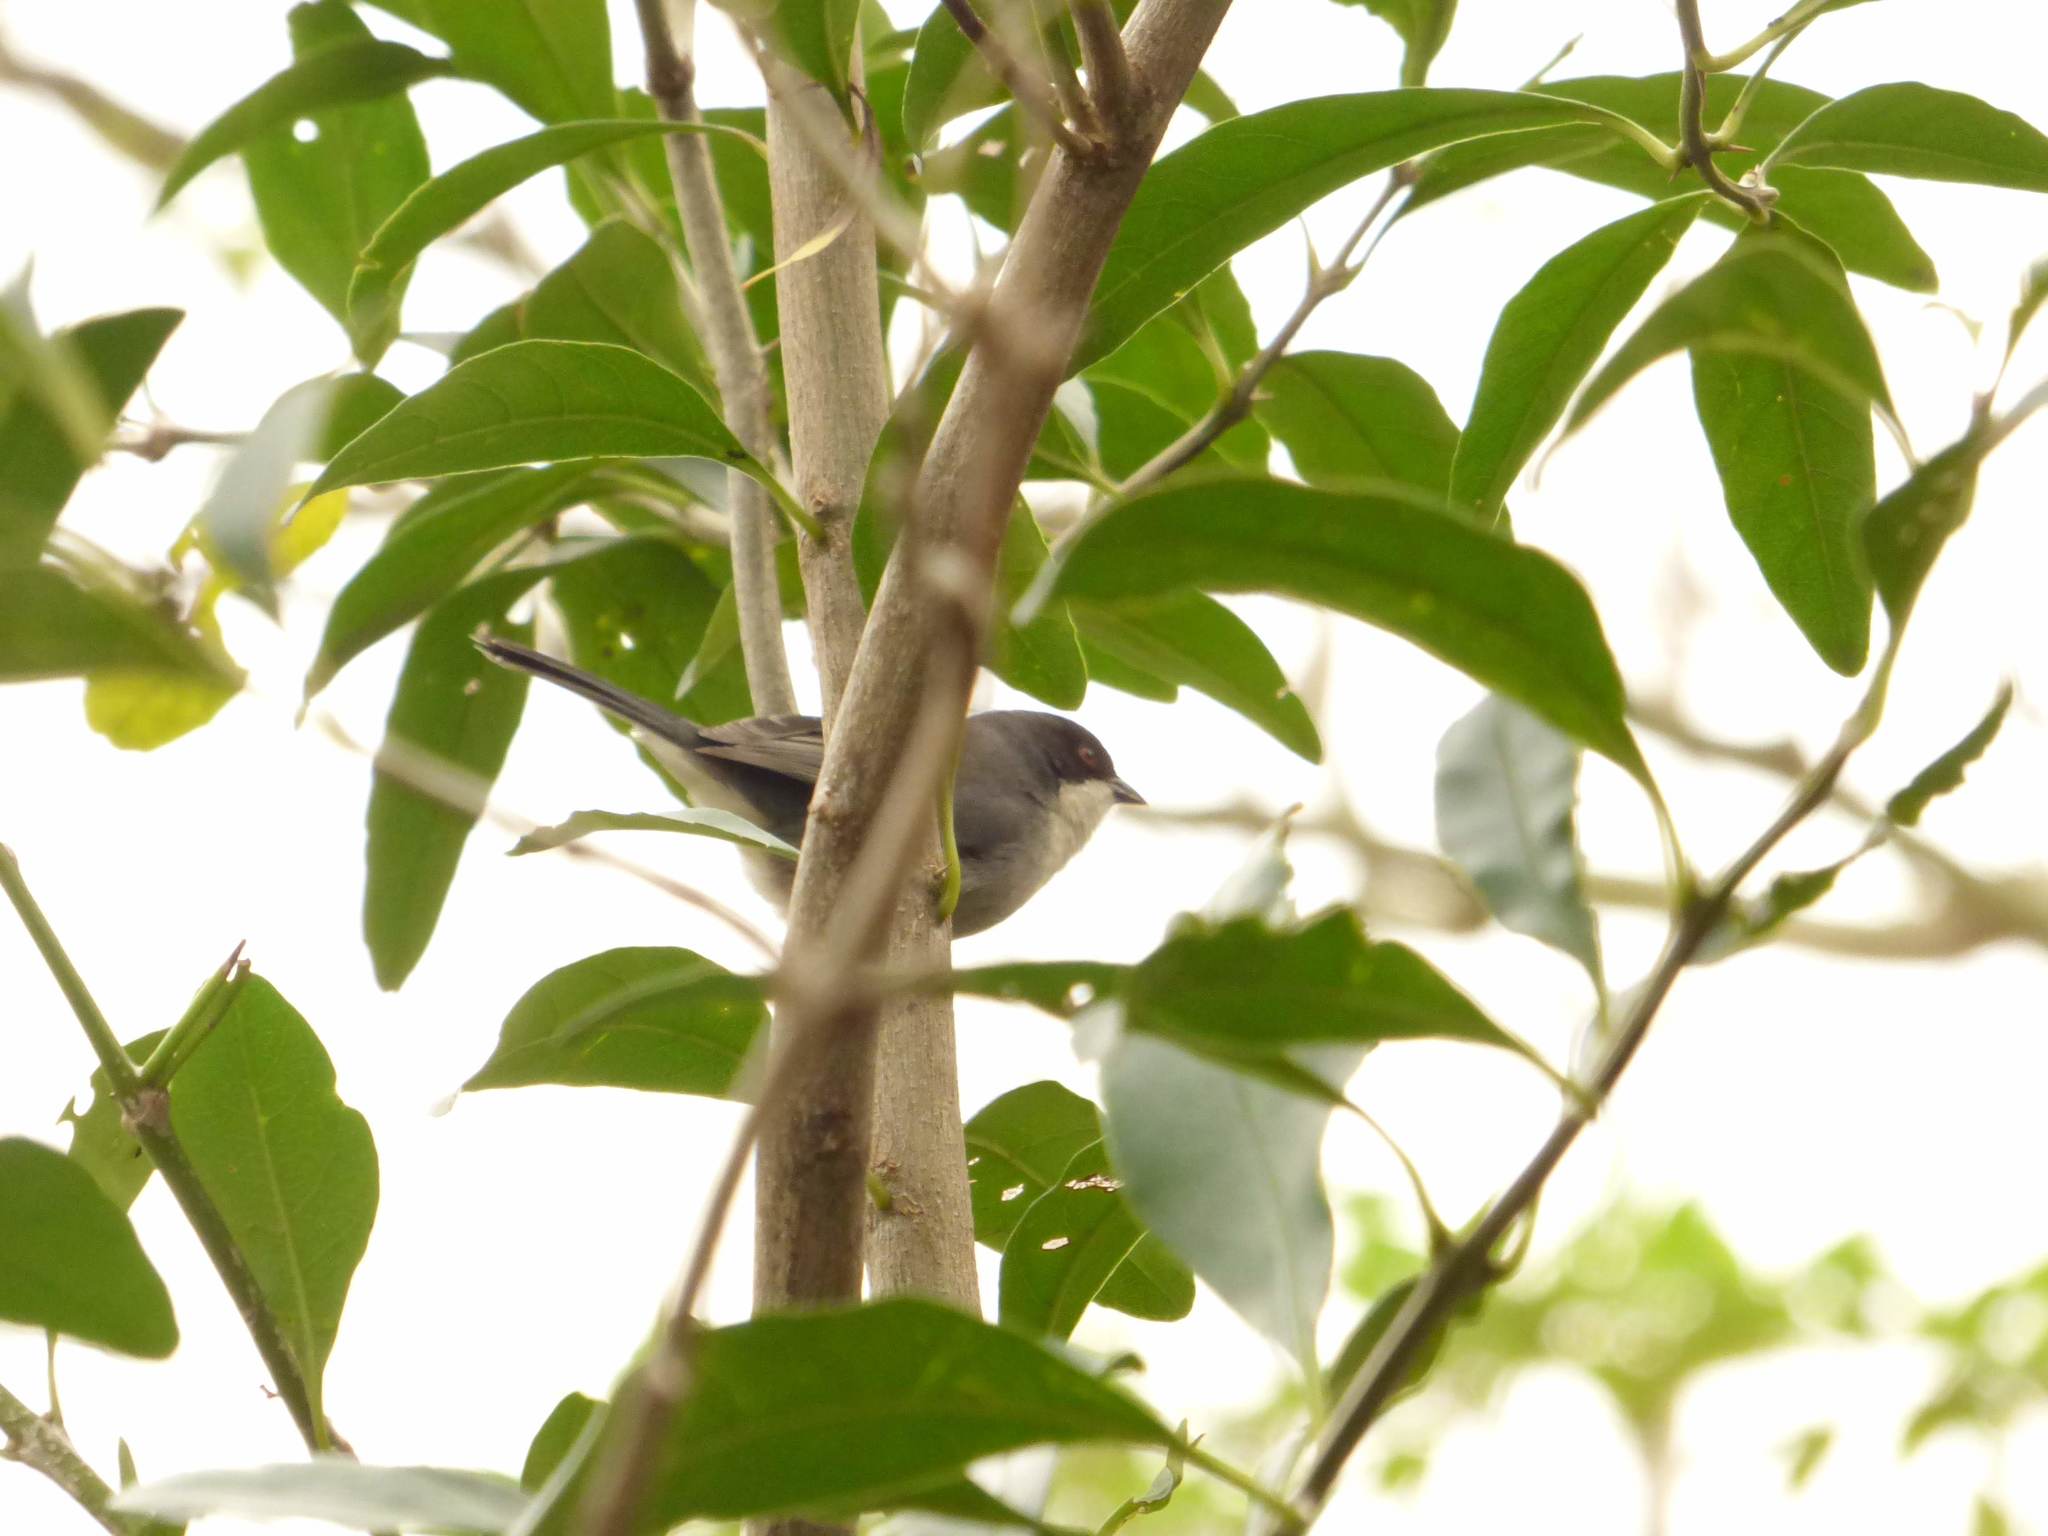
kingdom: Animalia
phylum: Chordata
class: Aves
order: Passeriformes
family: Thraupidae
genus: Microspingus
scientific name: Microspingus melanoleucus
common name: Black-capped warbling-finch
